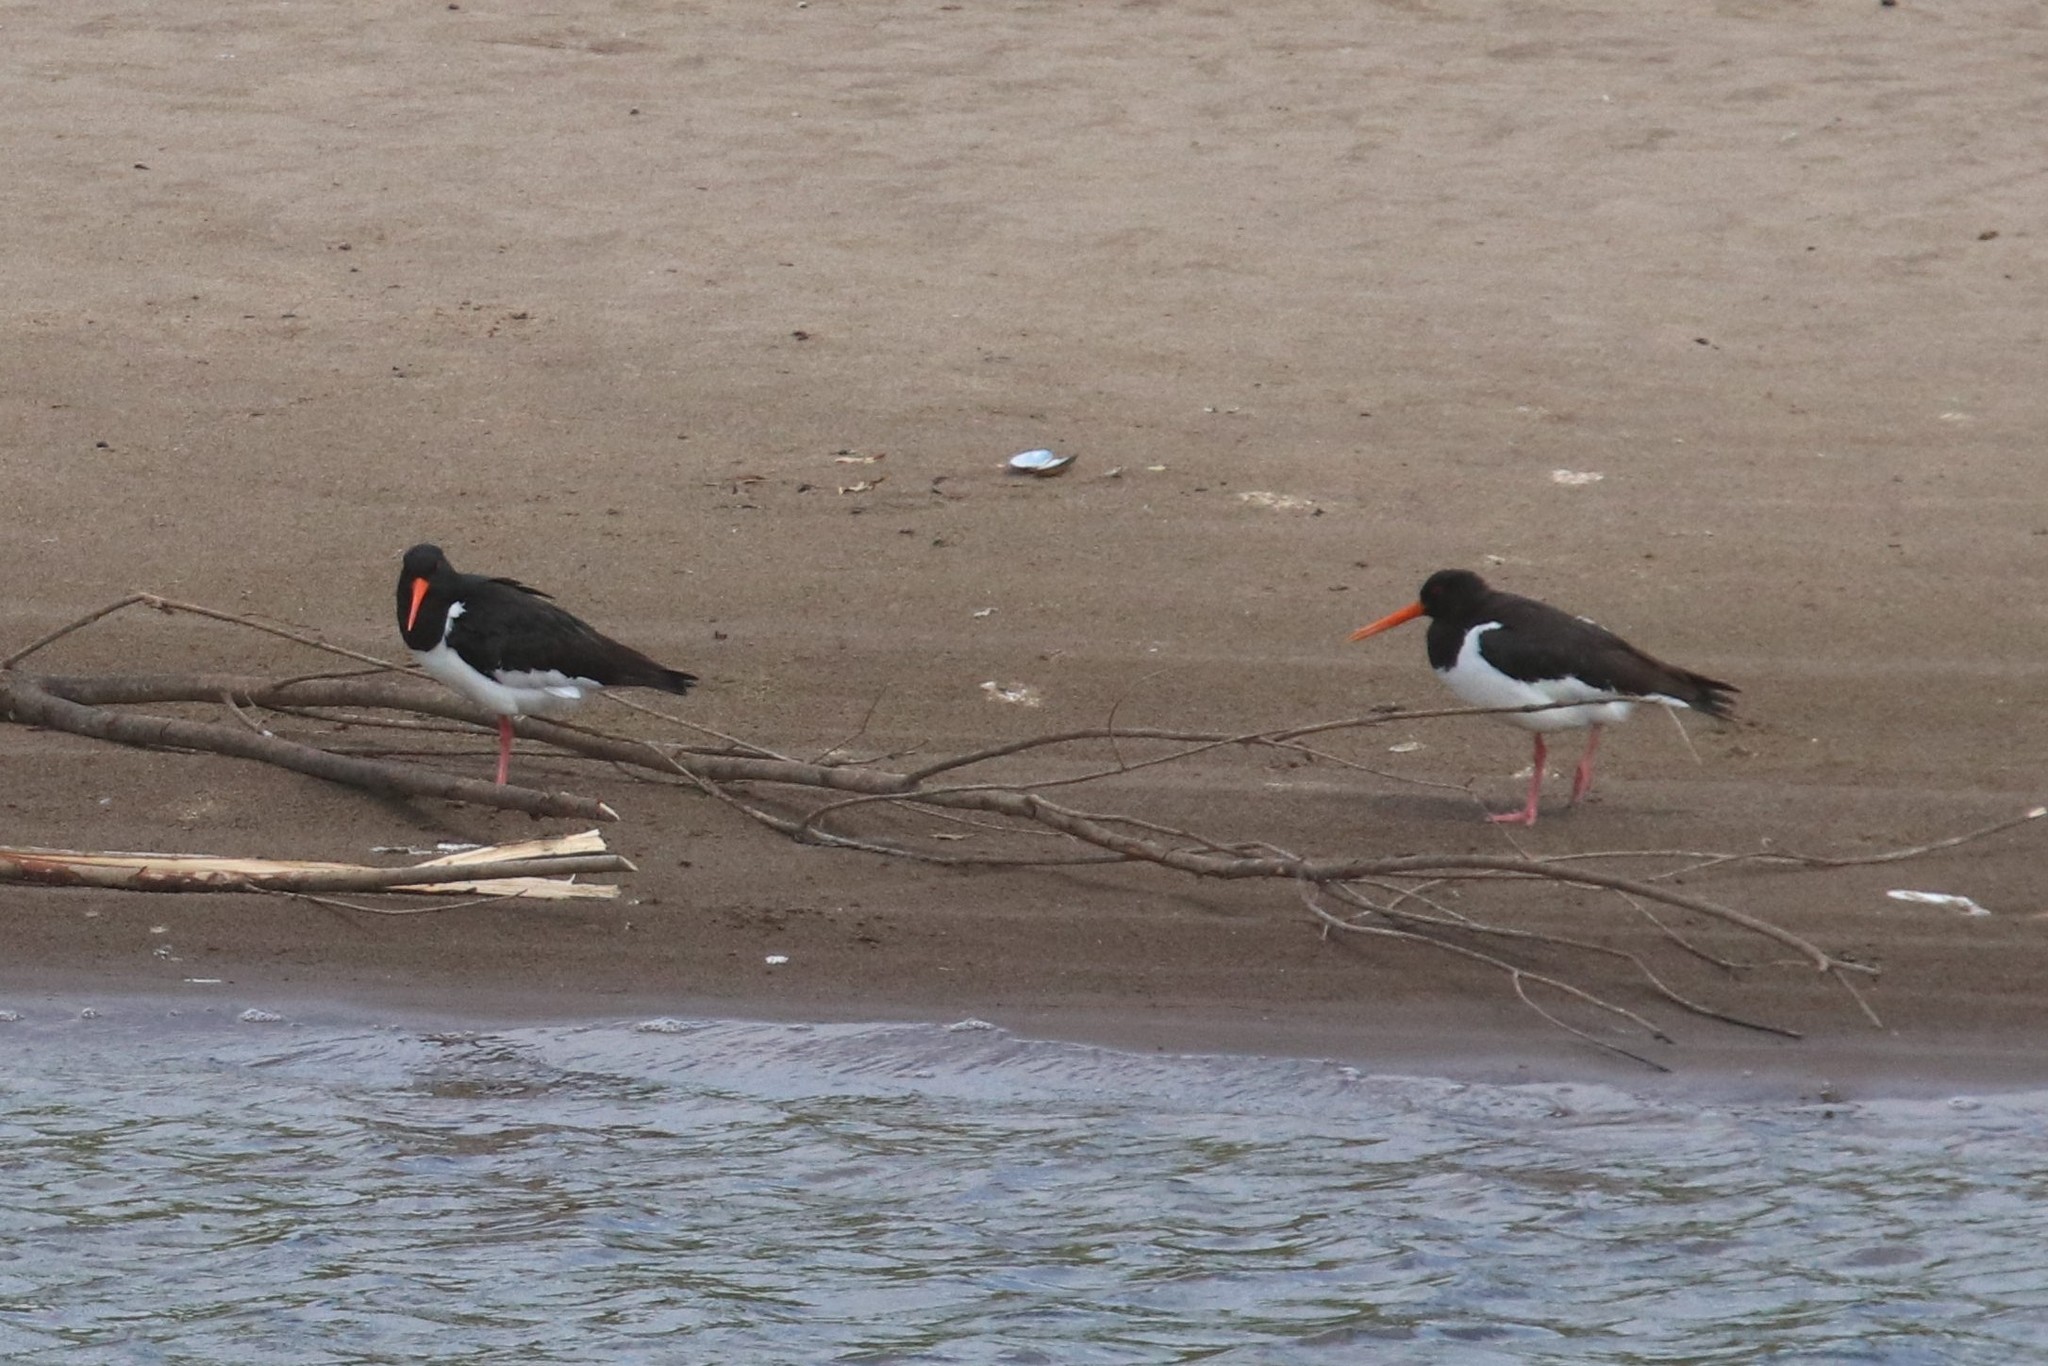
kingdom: Animalia
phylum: Chordata
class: Aves
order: Charadriiformes
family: Haematopodidae
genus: Haematopus
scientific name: Haematopus ostralegus
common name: Eurasian oystercatcher
